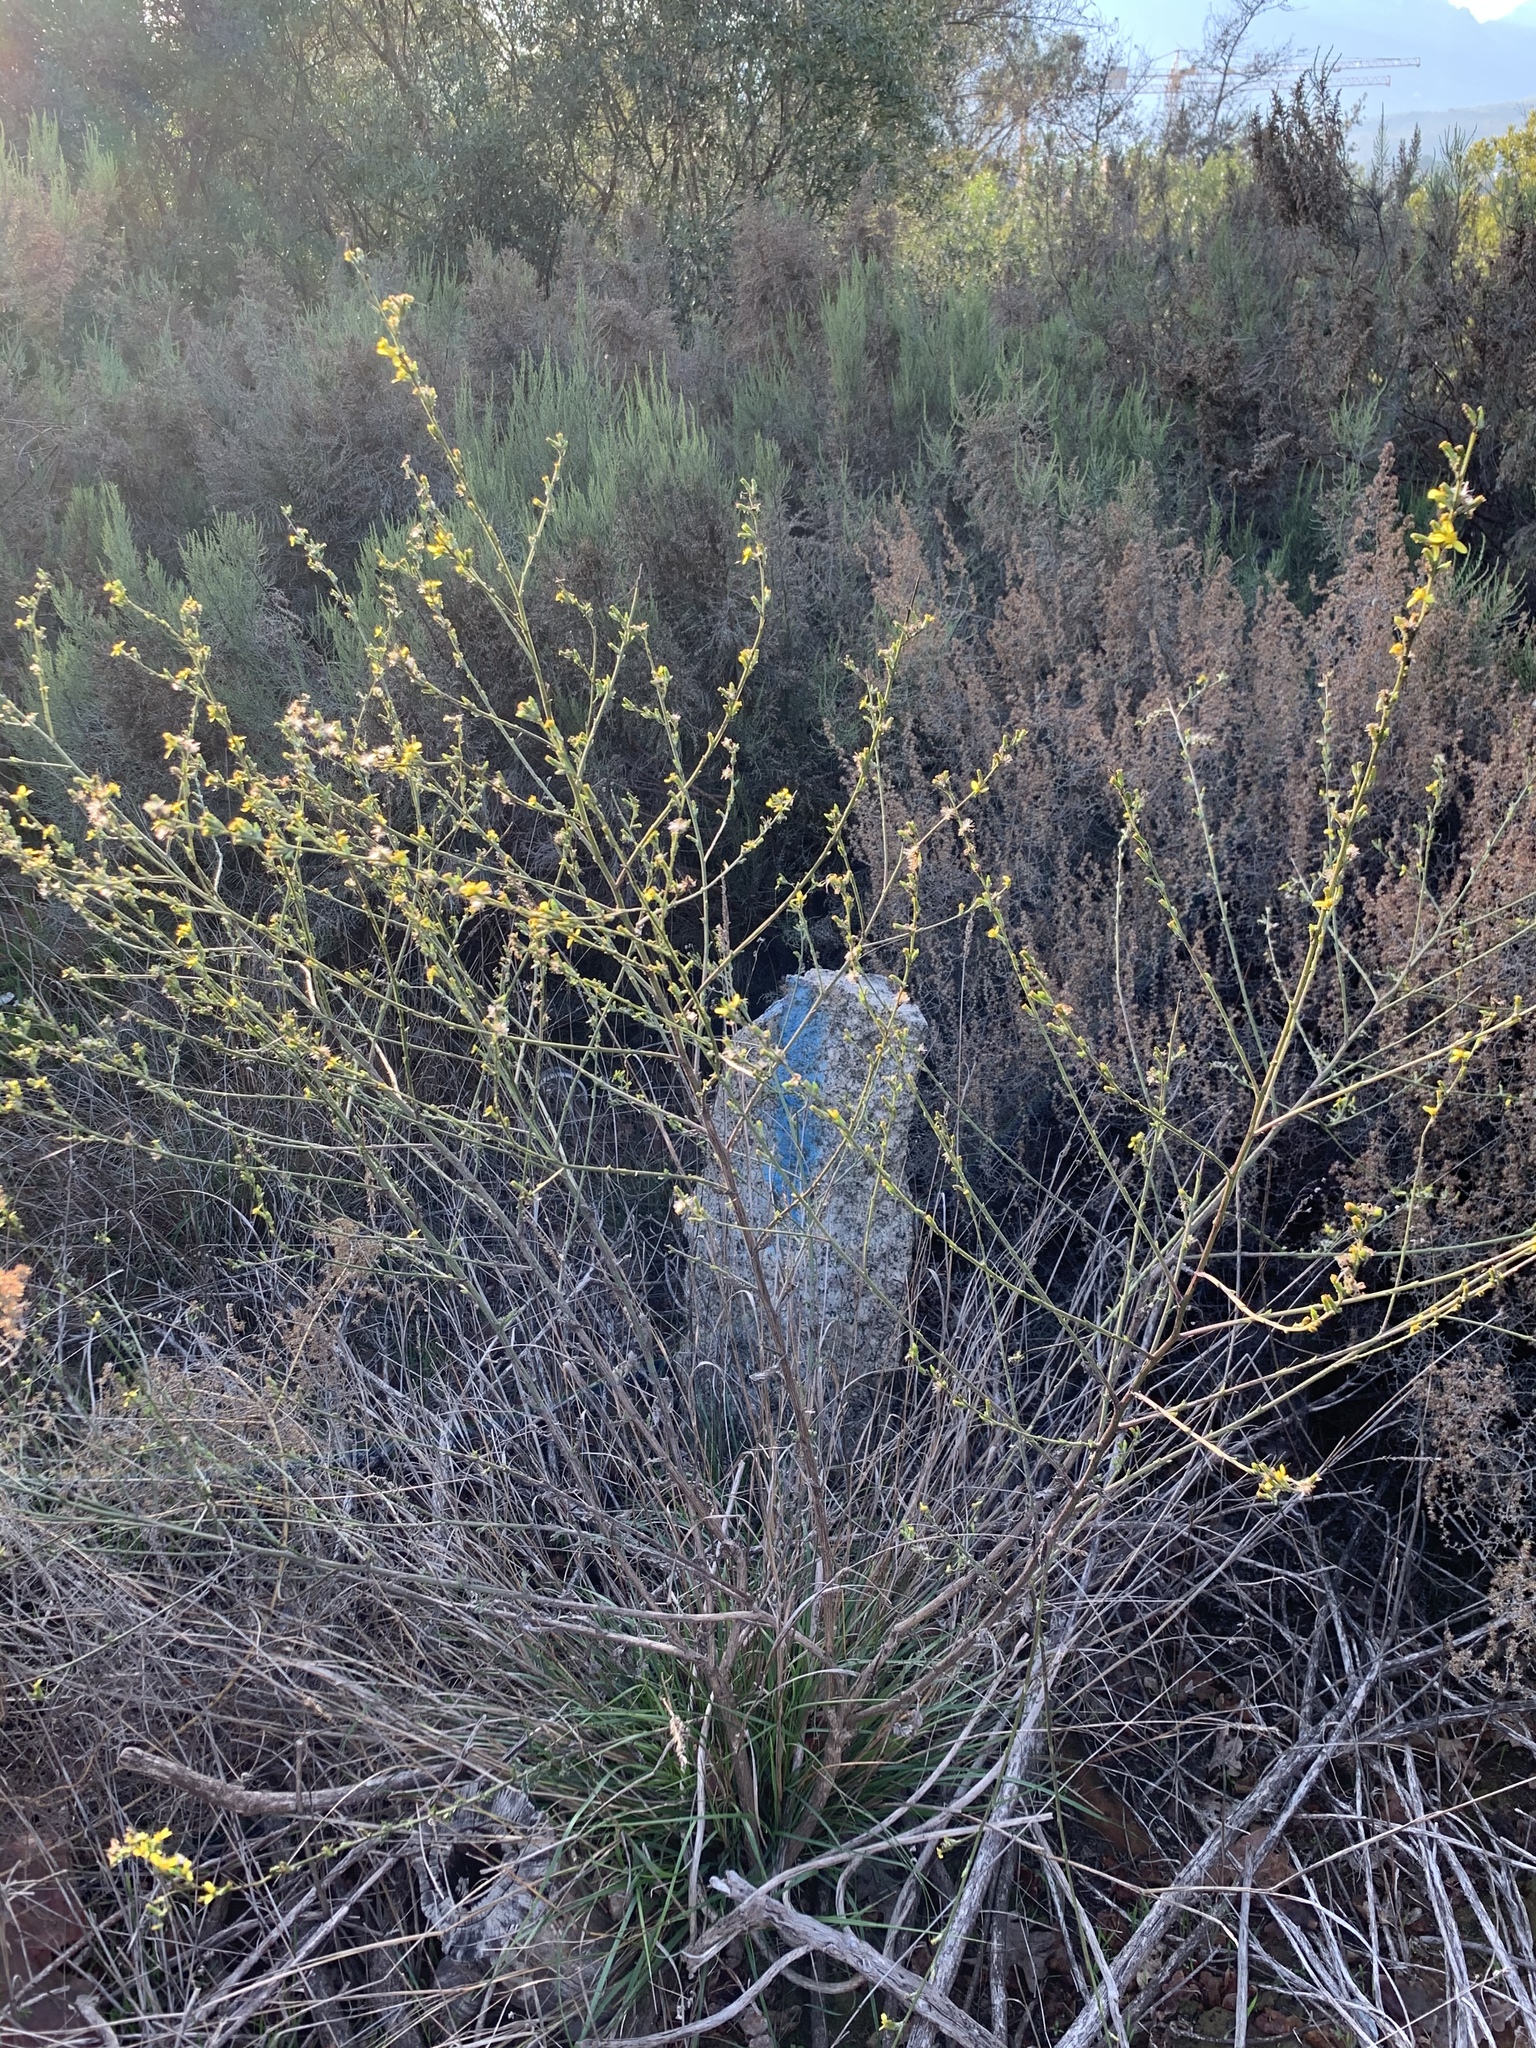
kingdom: Plantae
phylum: Tracheophyta
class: Magnoliopsida
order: Asterales
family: Asteraceae
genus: Senecio
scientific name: Senecio pubigerus
